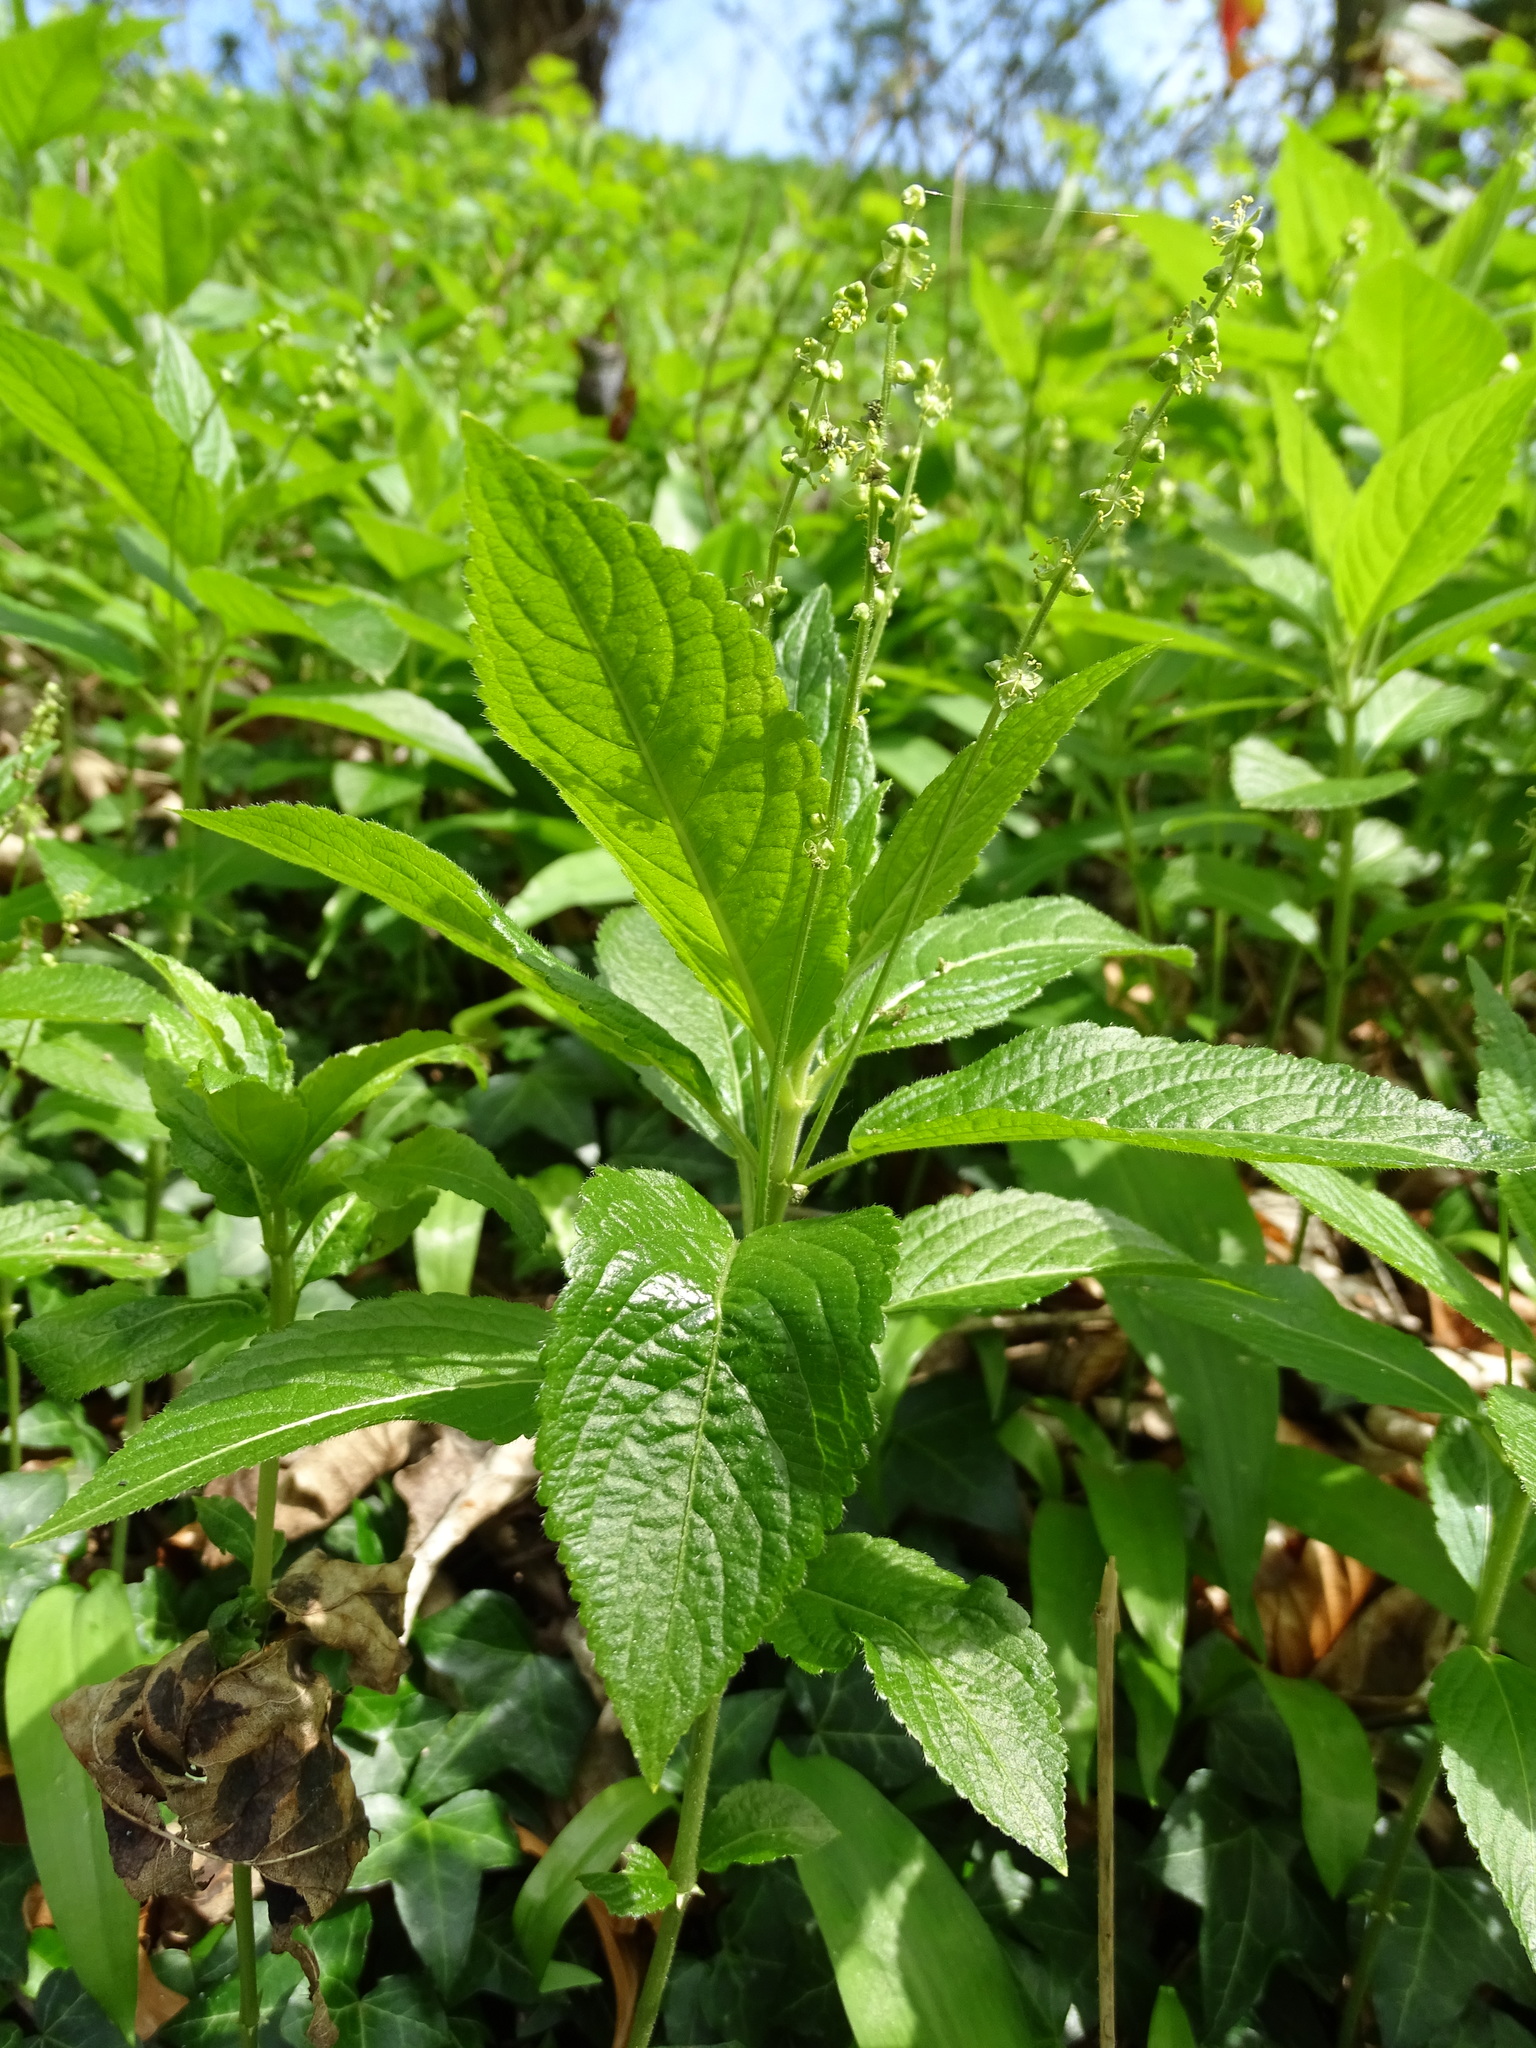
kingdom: Plantae
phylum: Tracheophyta
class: Magnoliopsida
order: Malpighiales
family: Euphorbiaceae
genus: Mercurialis
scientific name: Mercurialis perennis
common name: Dog mercury
